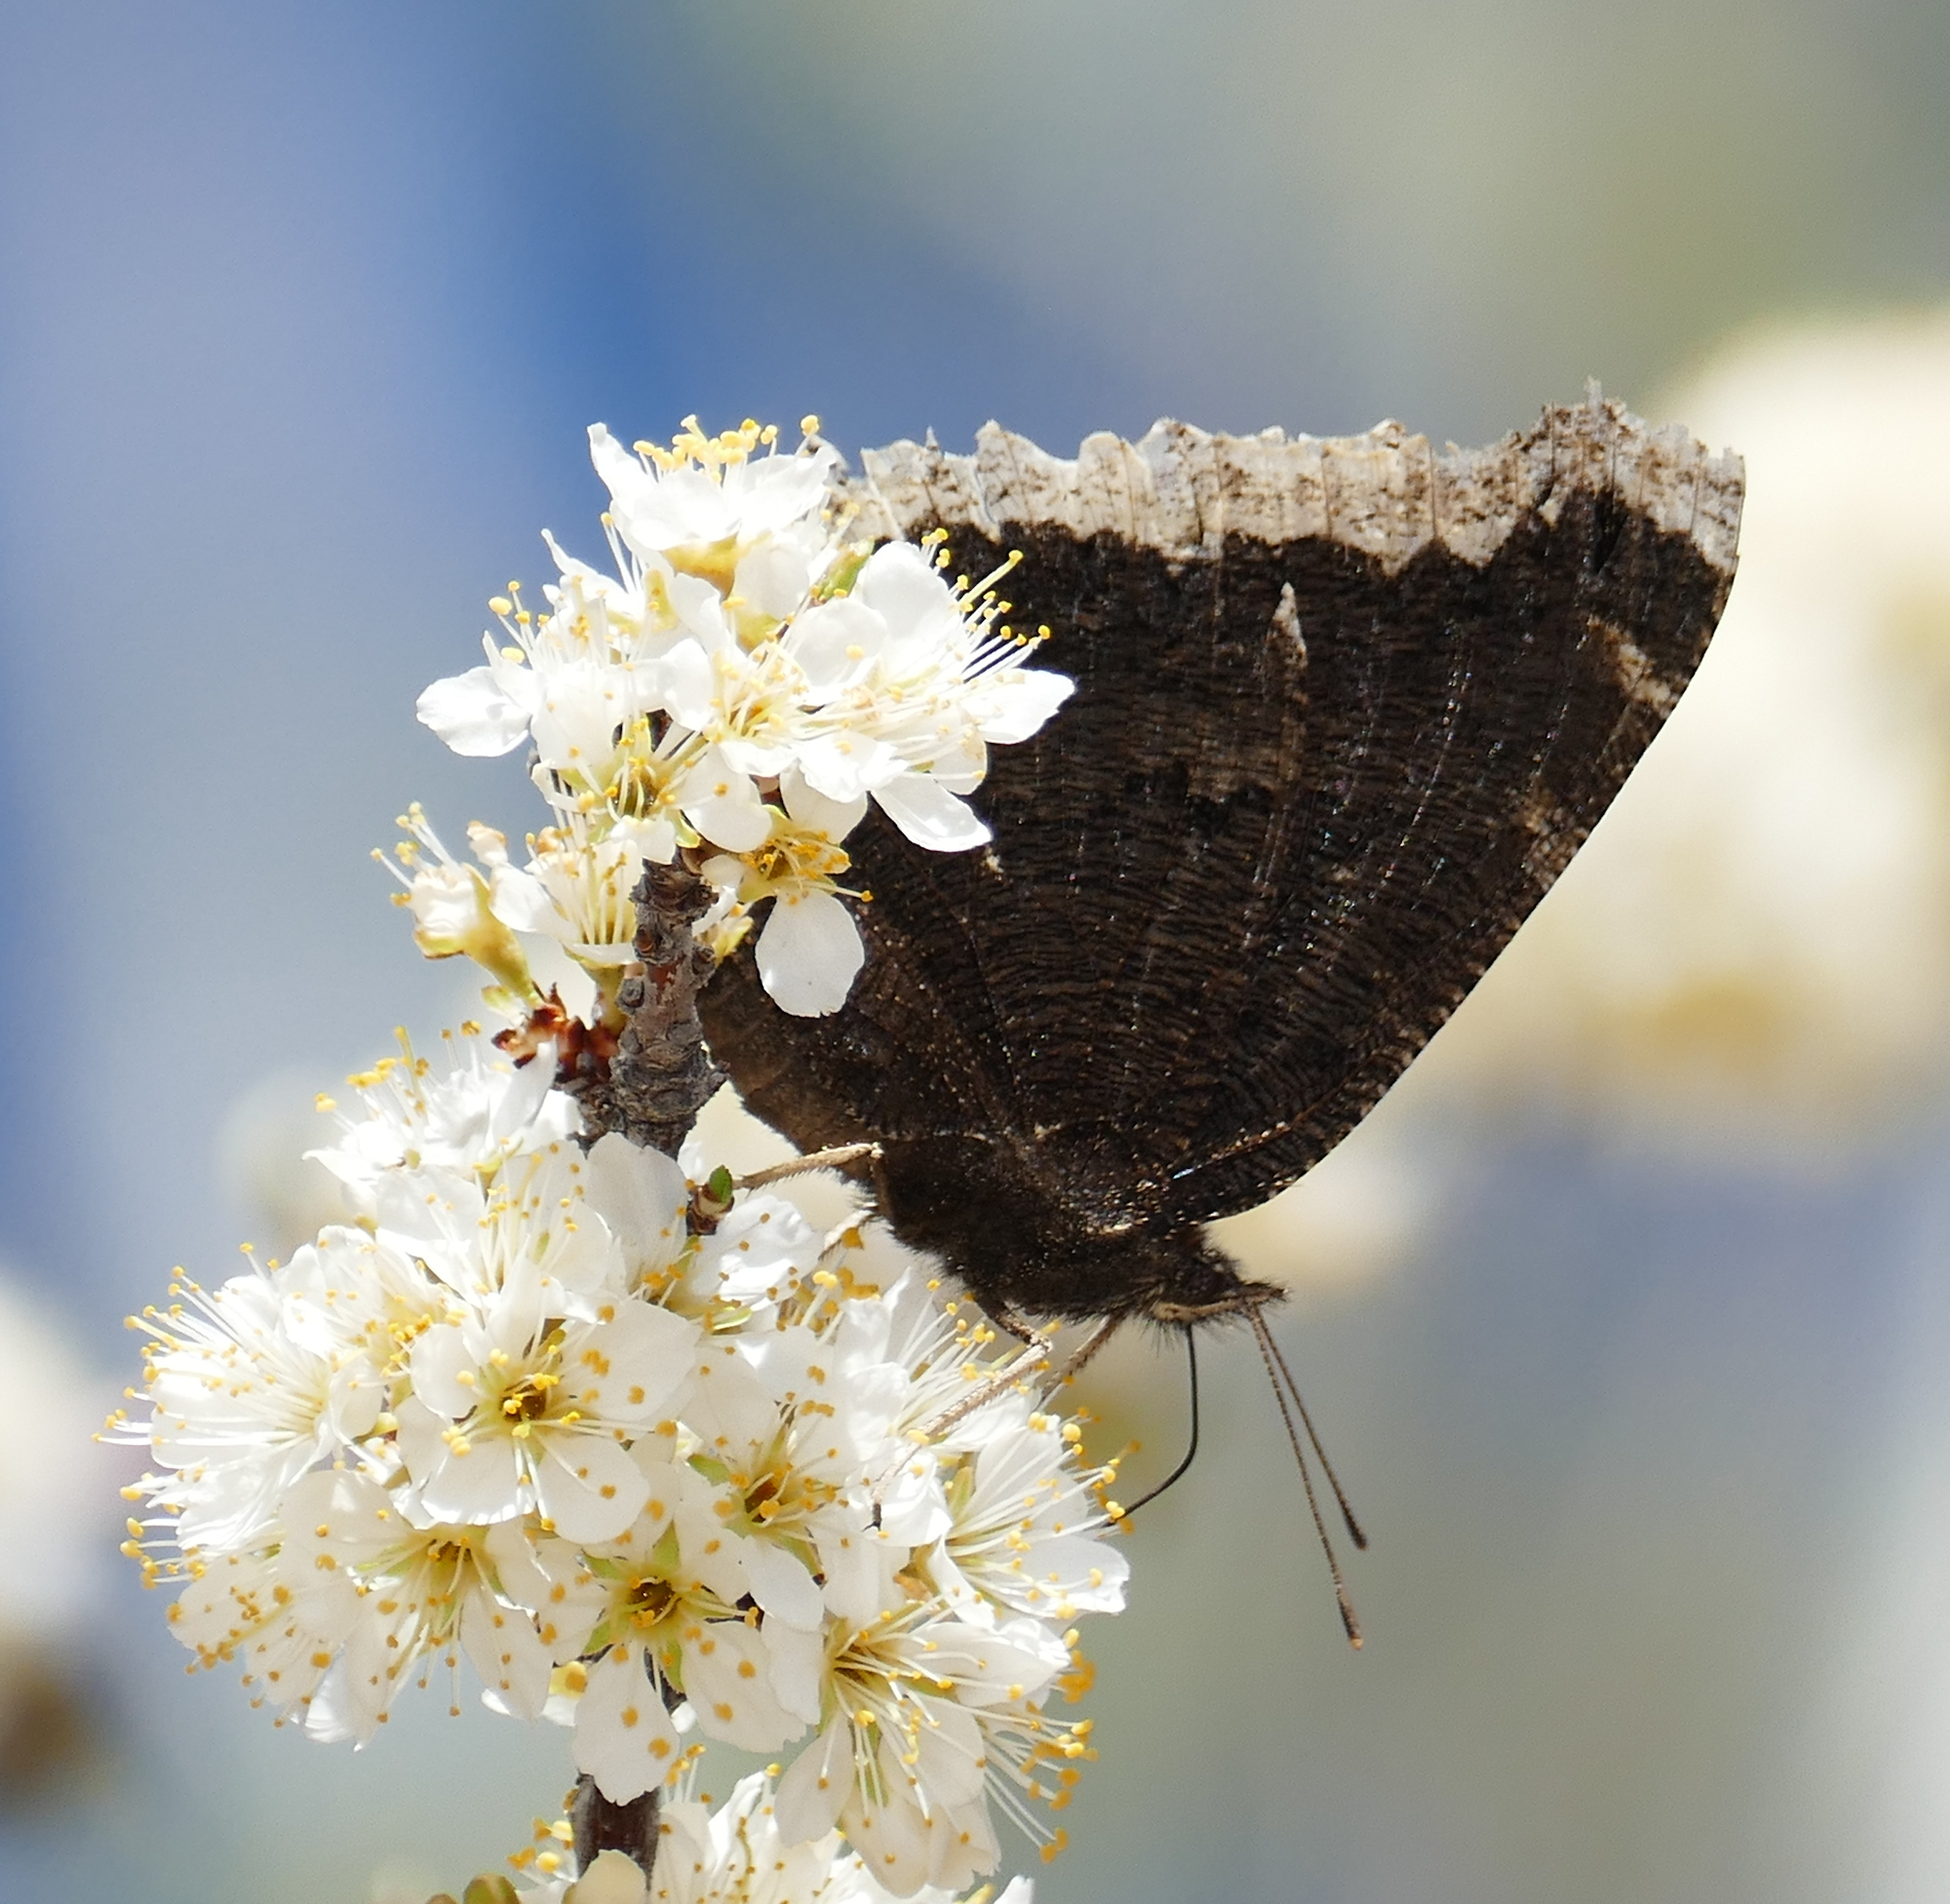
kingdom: Animalia
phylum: Arthropoda
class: Insecta
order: Lepidoptera
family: Nymphalidae
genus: Nymphalis
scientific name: Nymphalis antiopa
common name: Camberwell beauty
